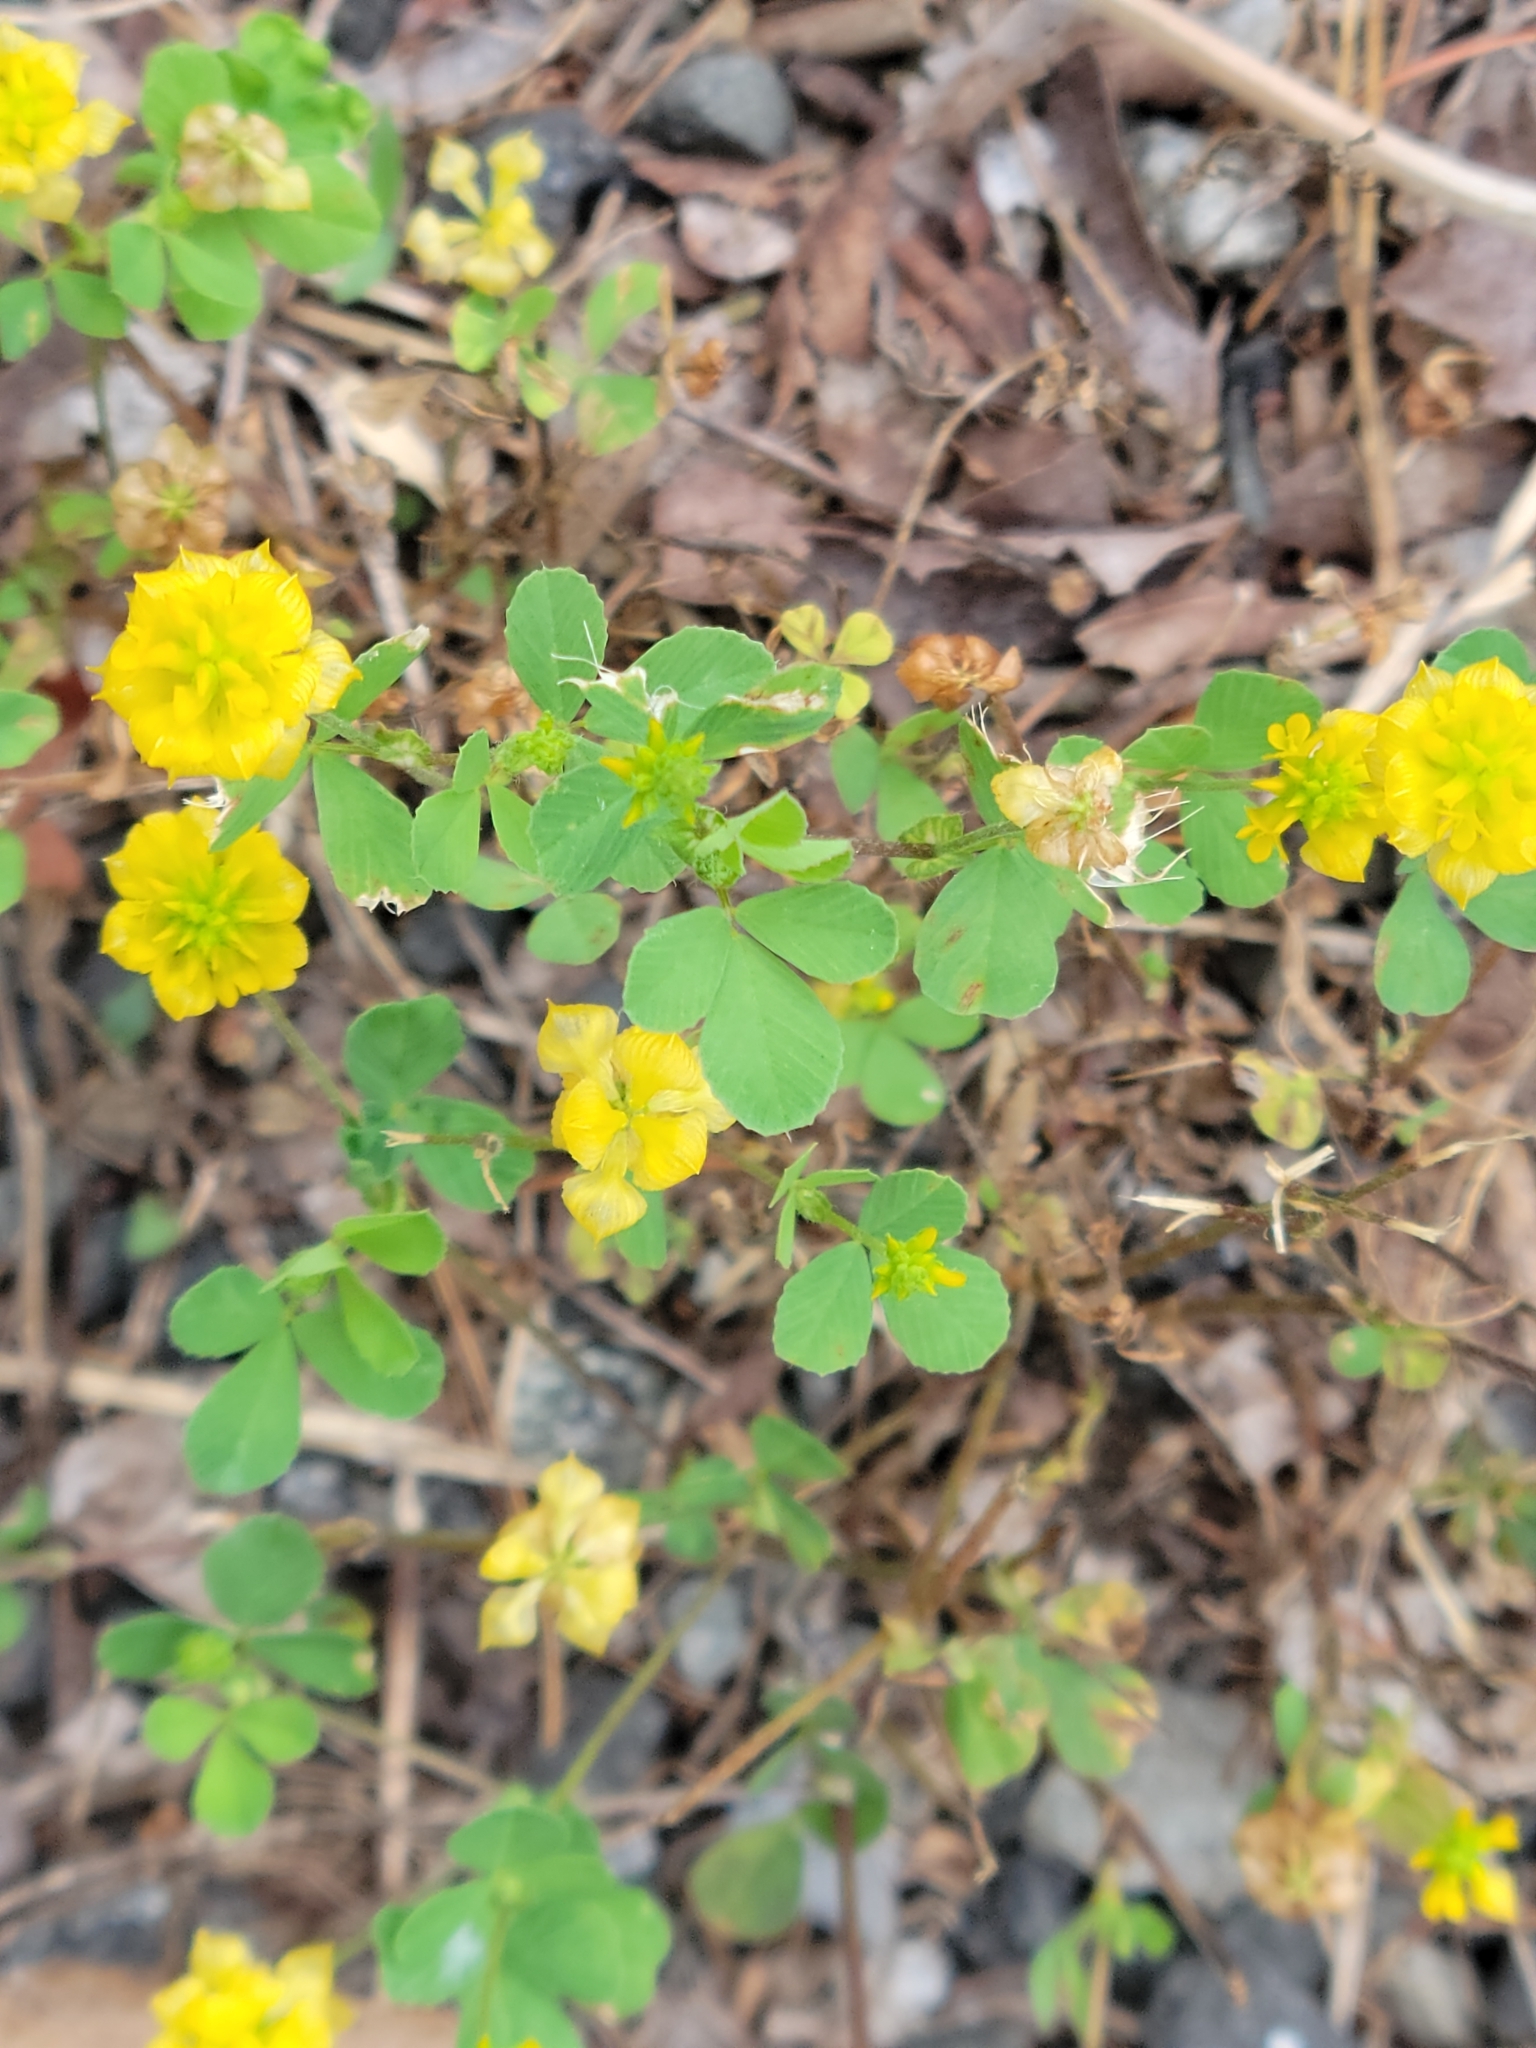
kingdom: Plantae
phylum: Tracheophyta
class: Magnoliopsida
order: Fabales
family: Fabaceae
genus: Trifolium
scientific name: Trifolium campestre
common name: Field clover
